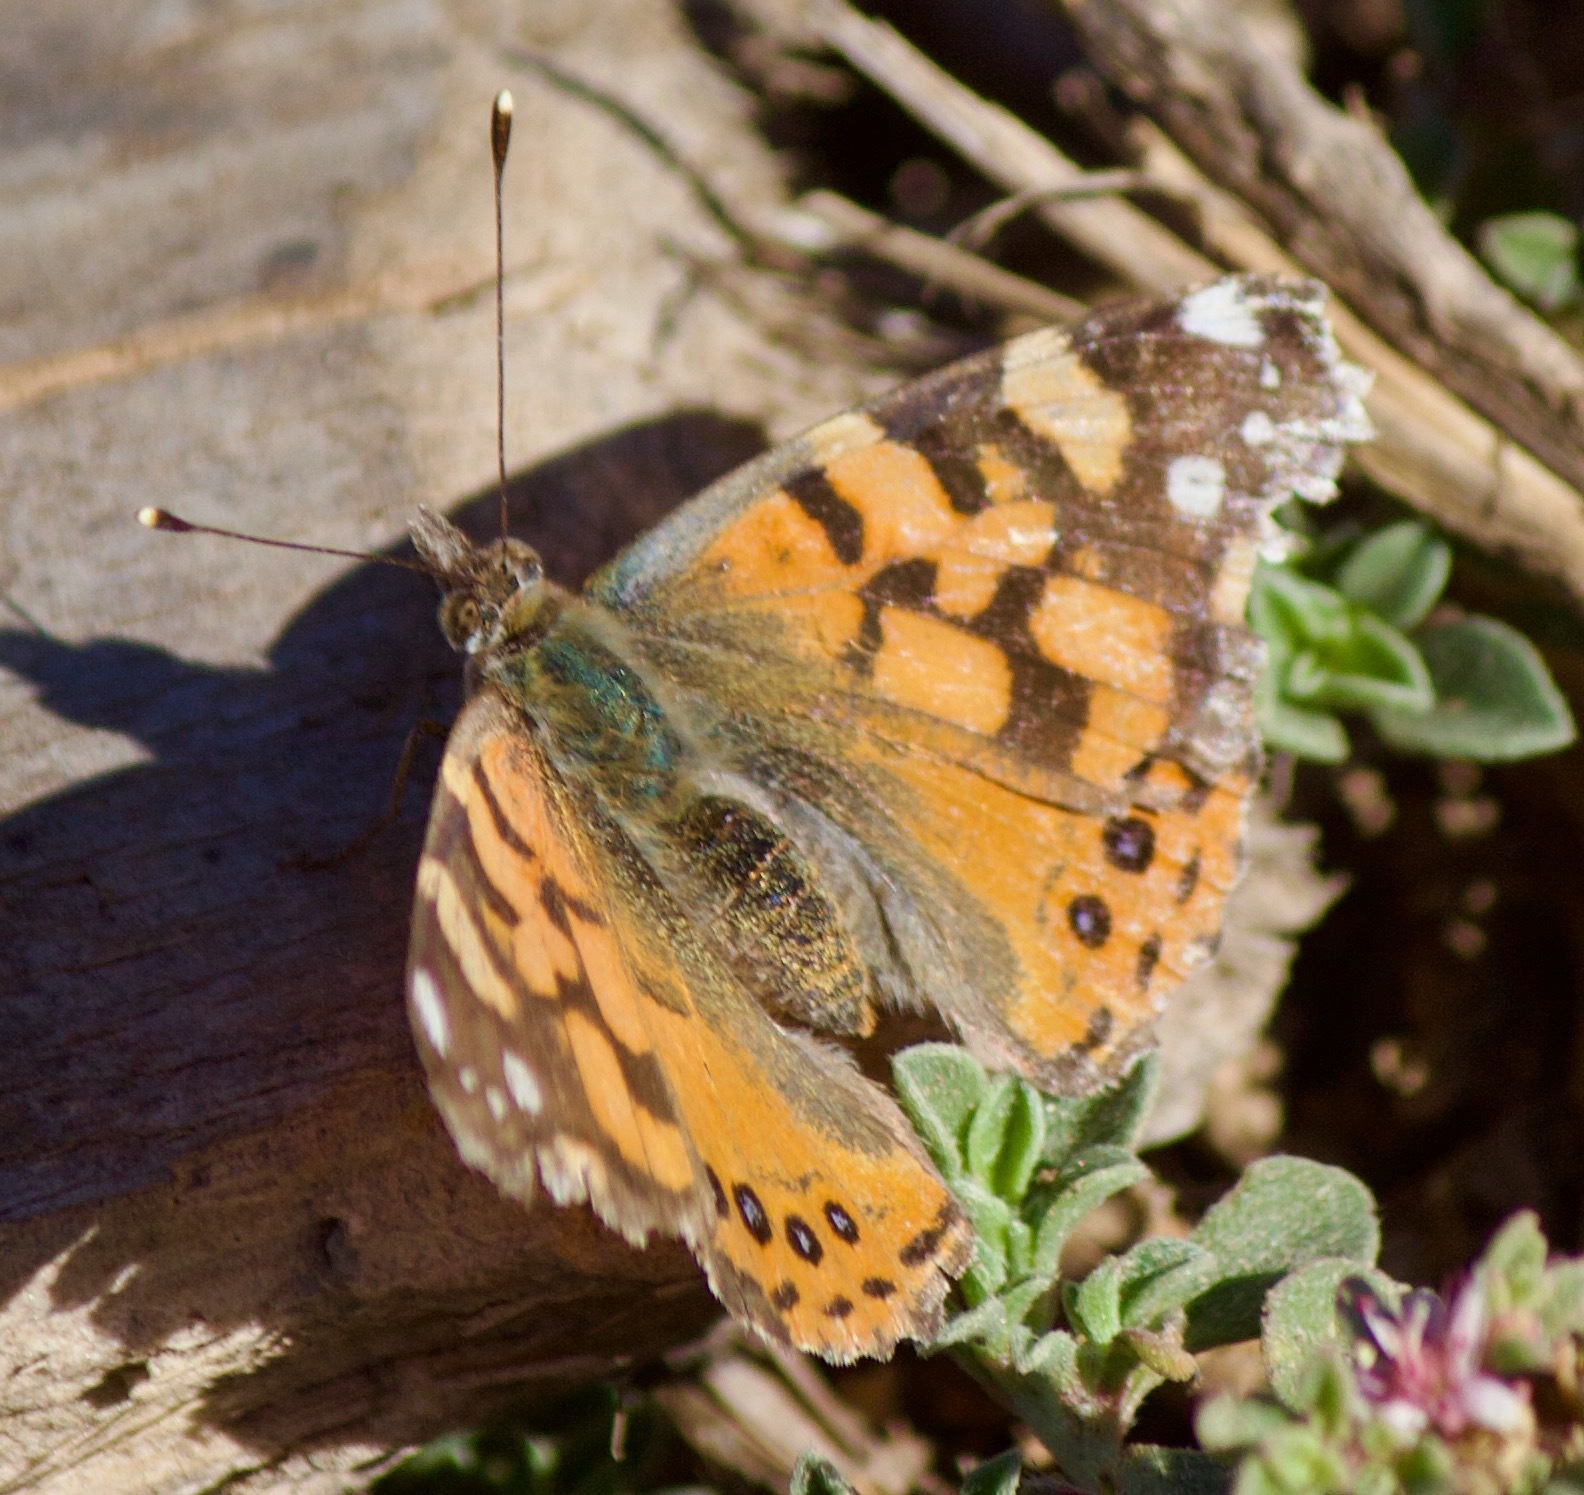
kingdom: Animalia
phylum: Arthropoda
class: Insecta
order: Lepidoptera
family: Nymphalidae
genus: Vanessa
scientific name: Vanessa carye
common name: Subtropical lady
